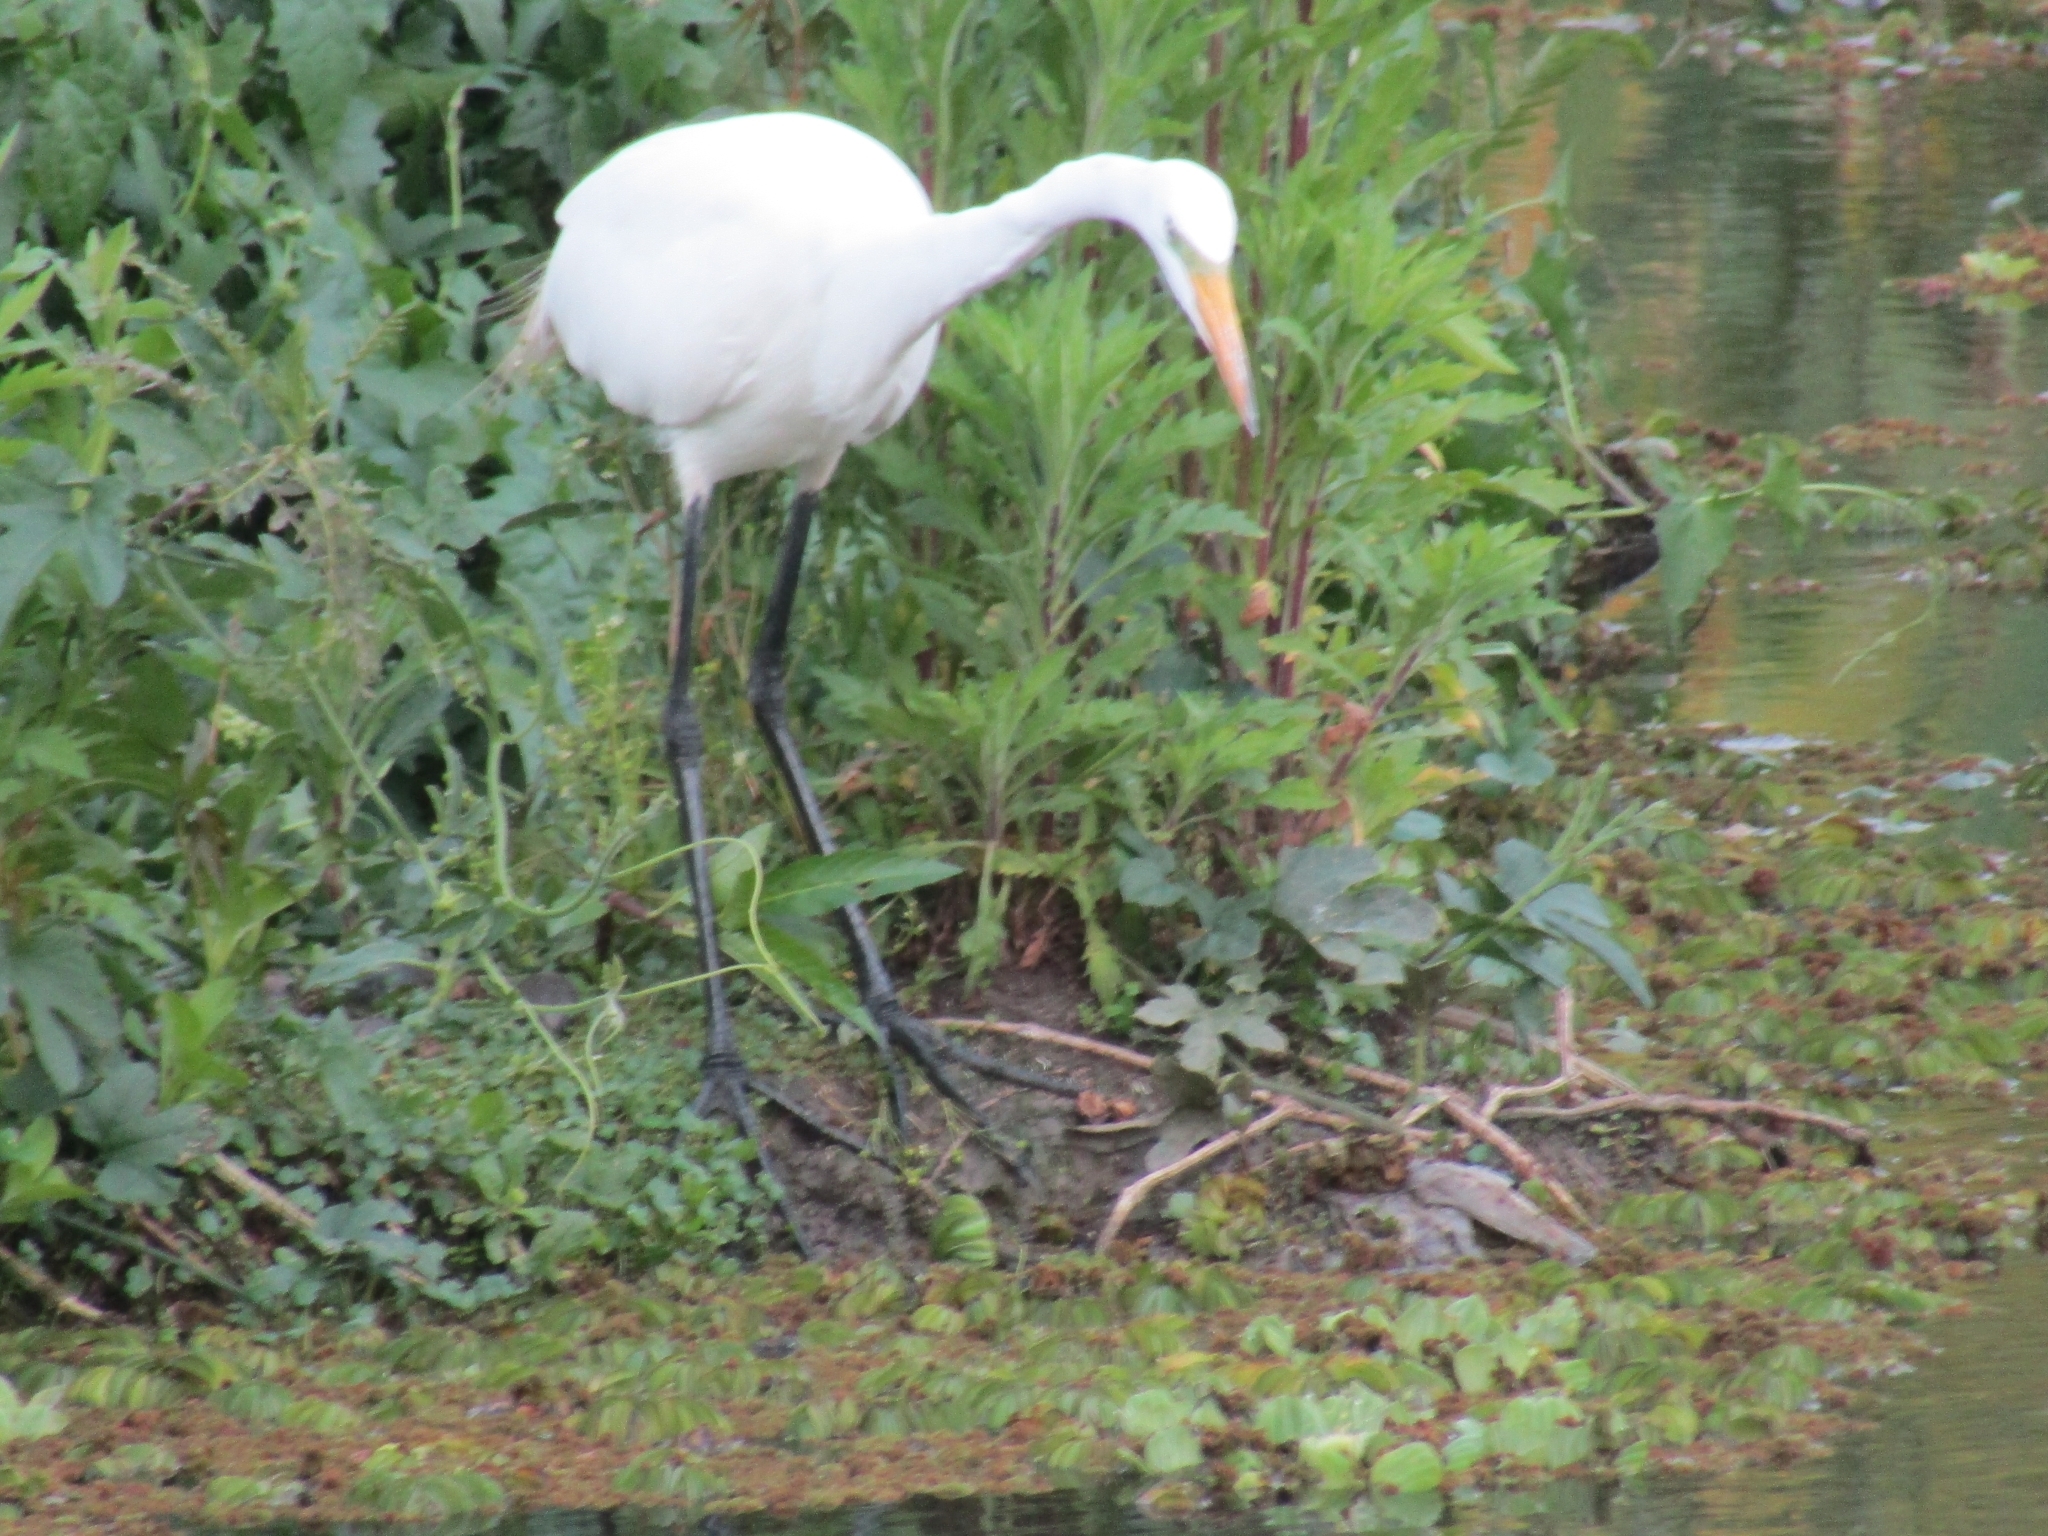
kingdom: Animalia
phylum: Chordata
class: Aves
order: Pelecaniformes
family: Ardeidae
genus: Ardea
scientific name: Ardea alba
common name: Great egret
